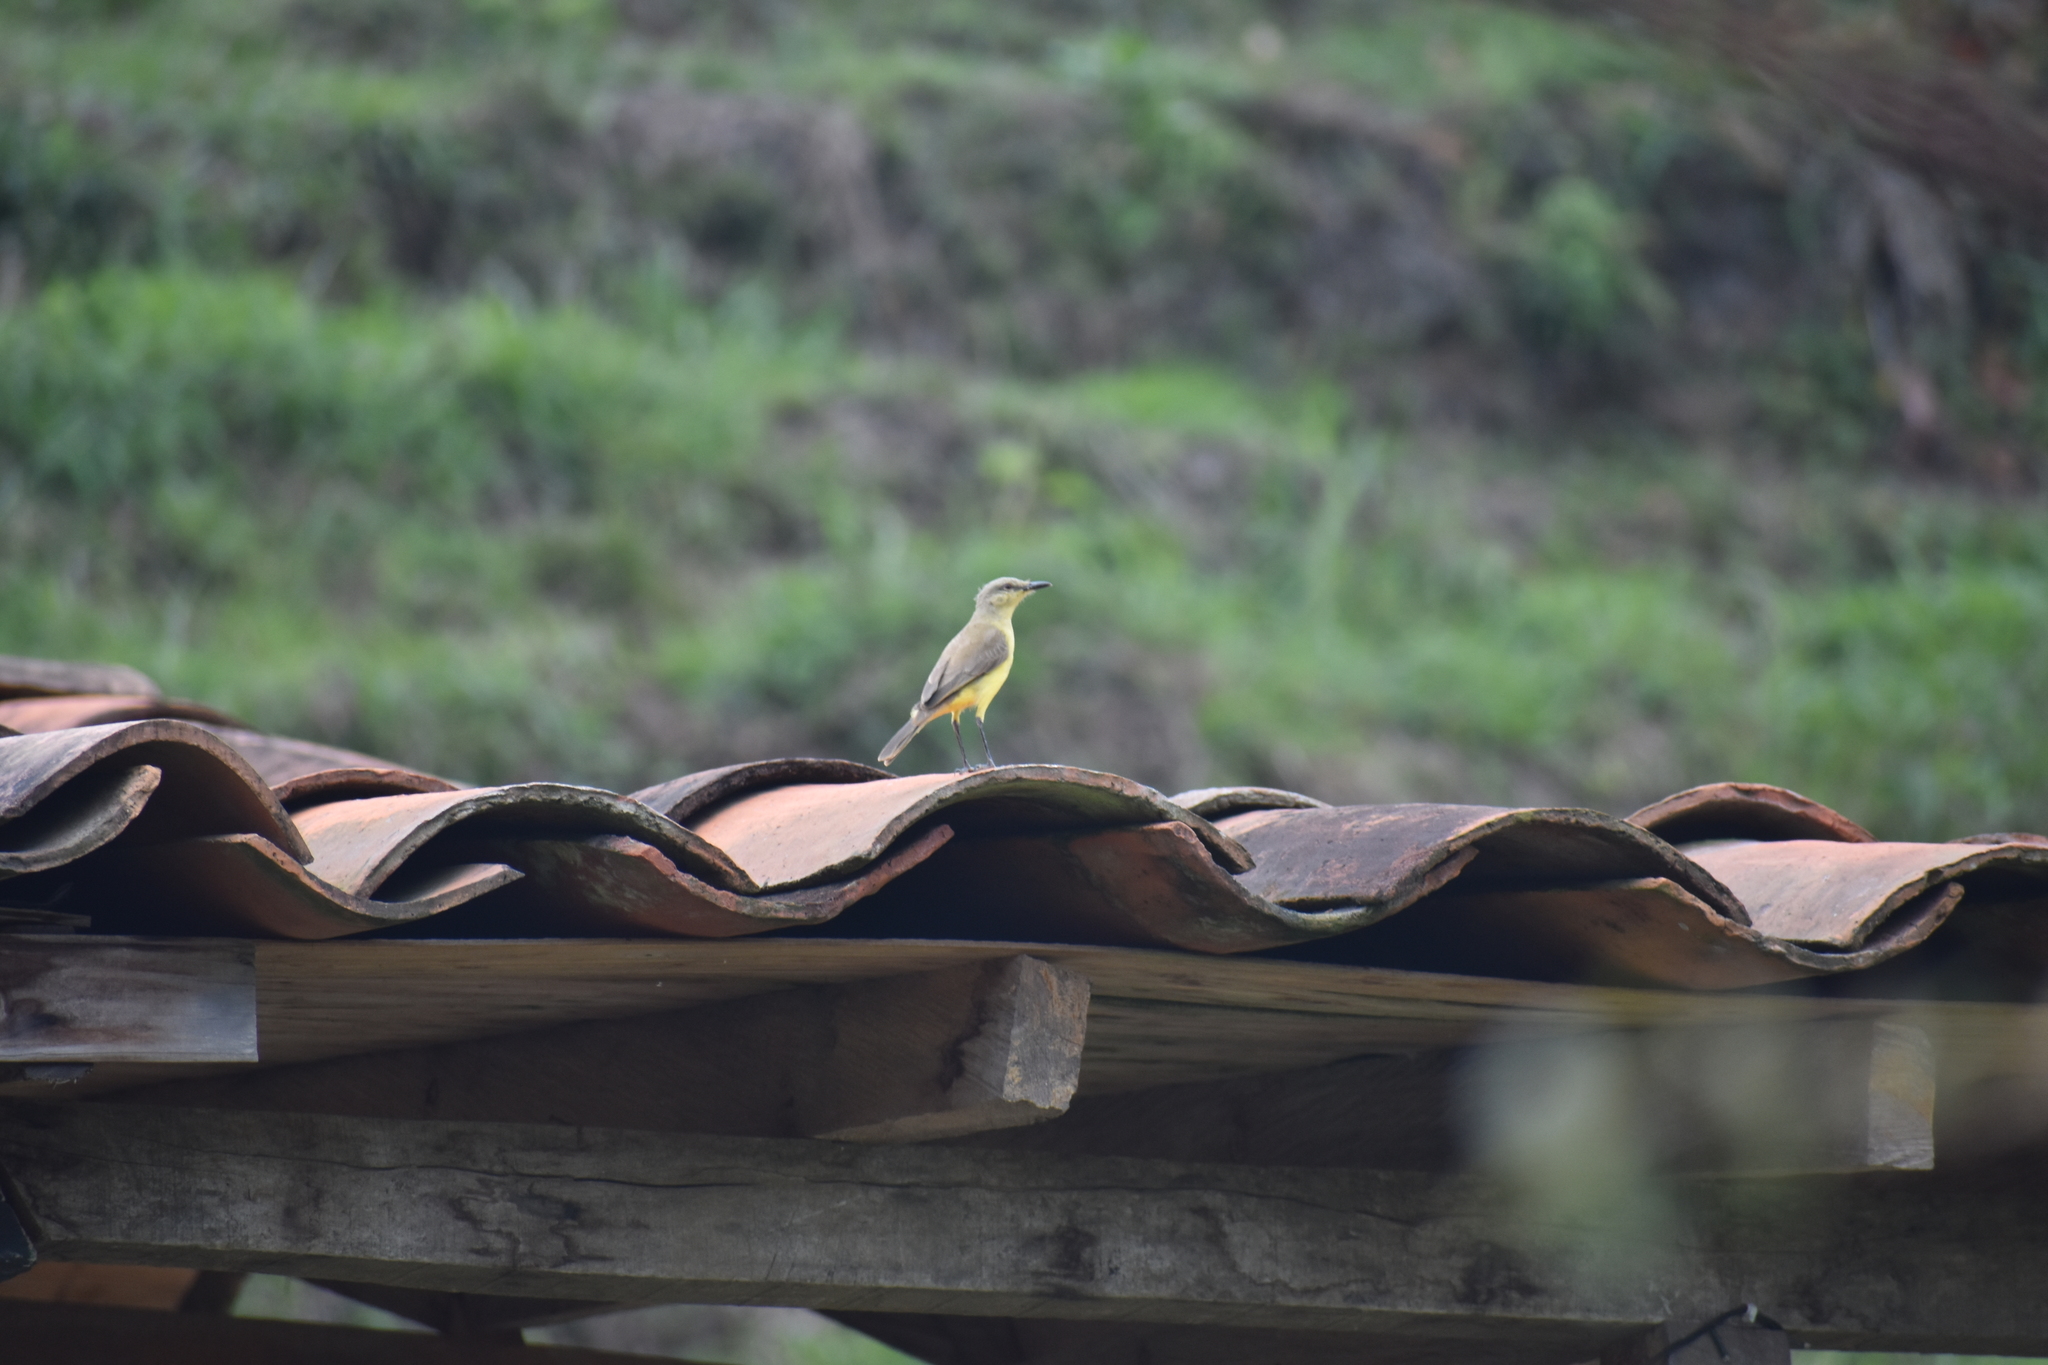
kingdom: Animalia
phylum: Chordata
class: Aves
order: Passeriformes
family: Tyrannidae
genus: Machetornis
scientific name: Machetornis rixosa
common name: Cattle tyrant
